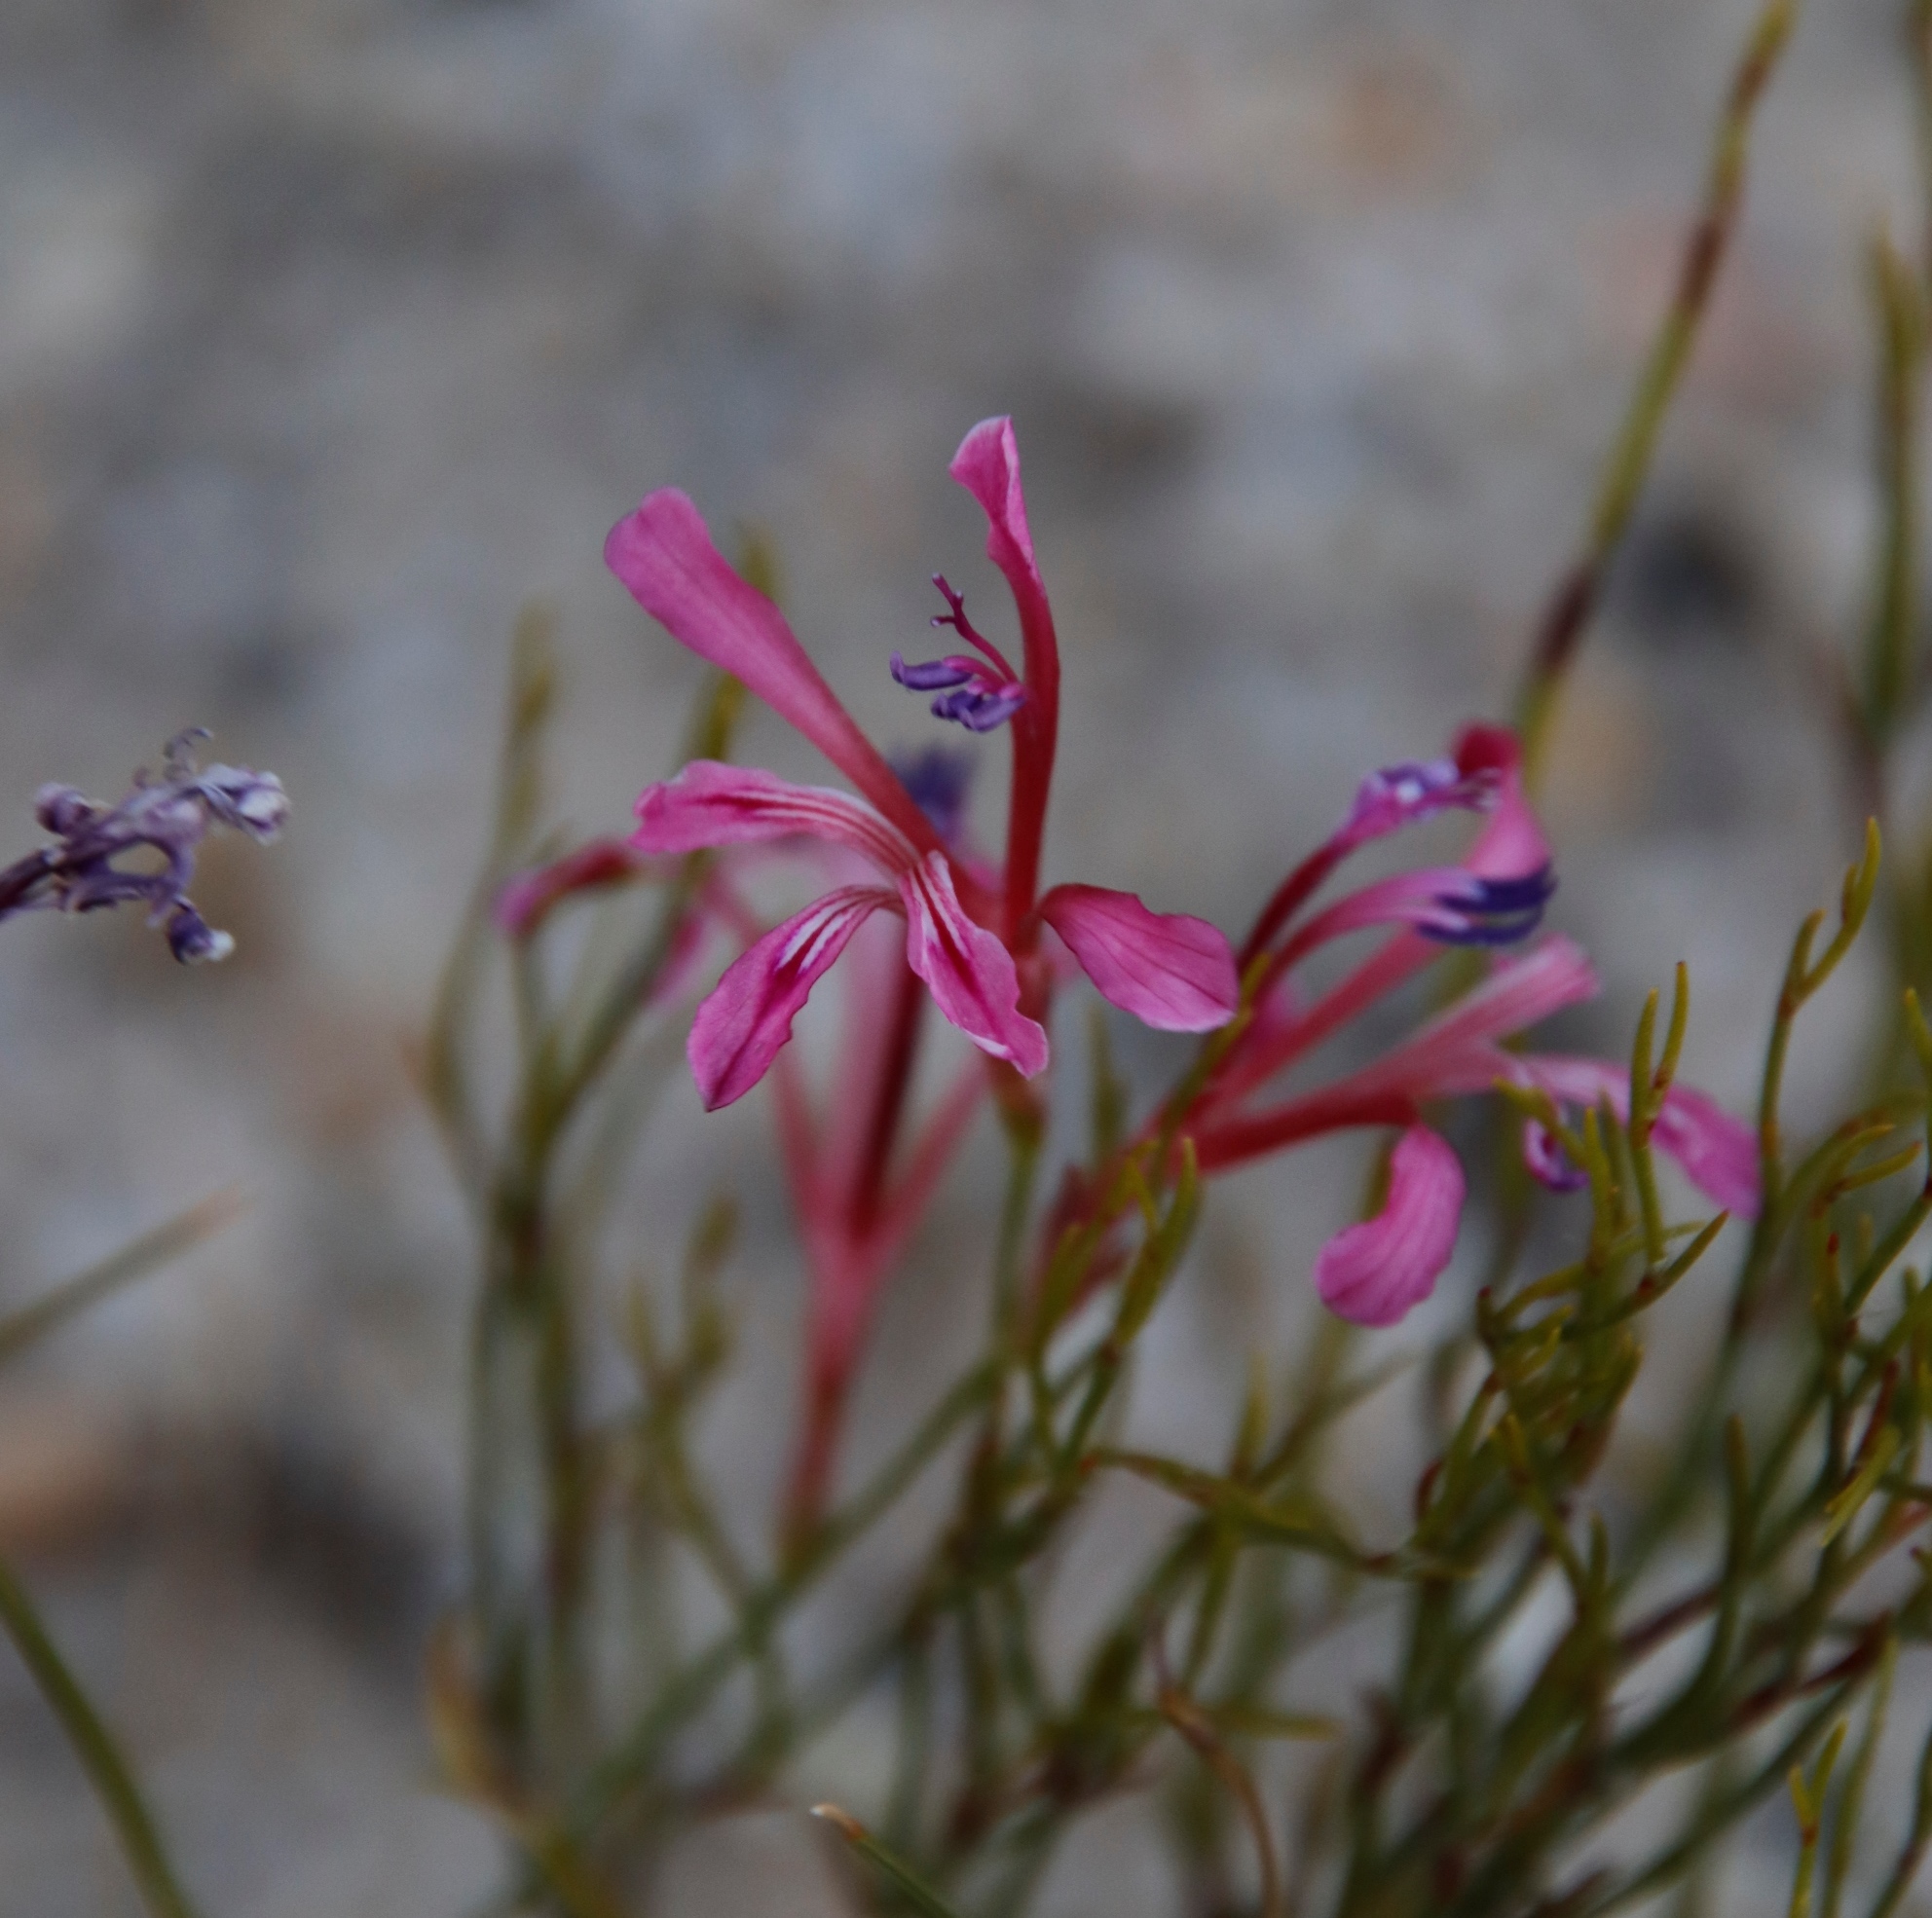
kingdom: Plantae
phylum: Tracheophyta
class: Liliopsida
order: Asparagales
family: Iridaceae
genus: Tritoniopsis
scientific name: Tritoniopsis lata
